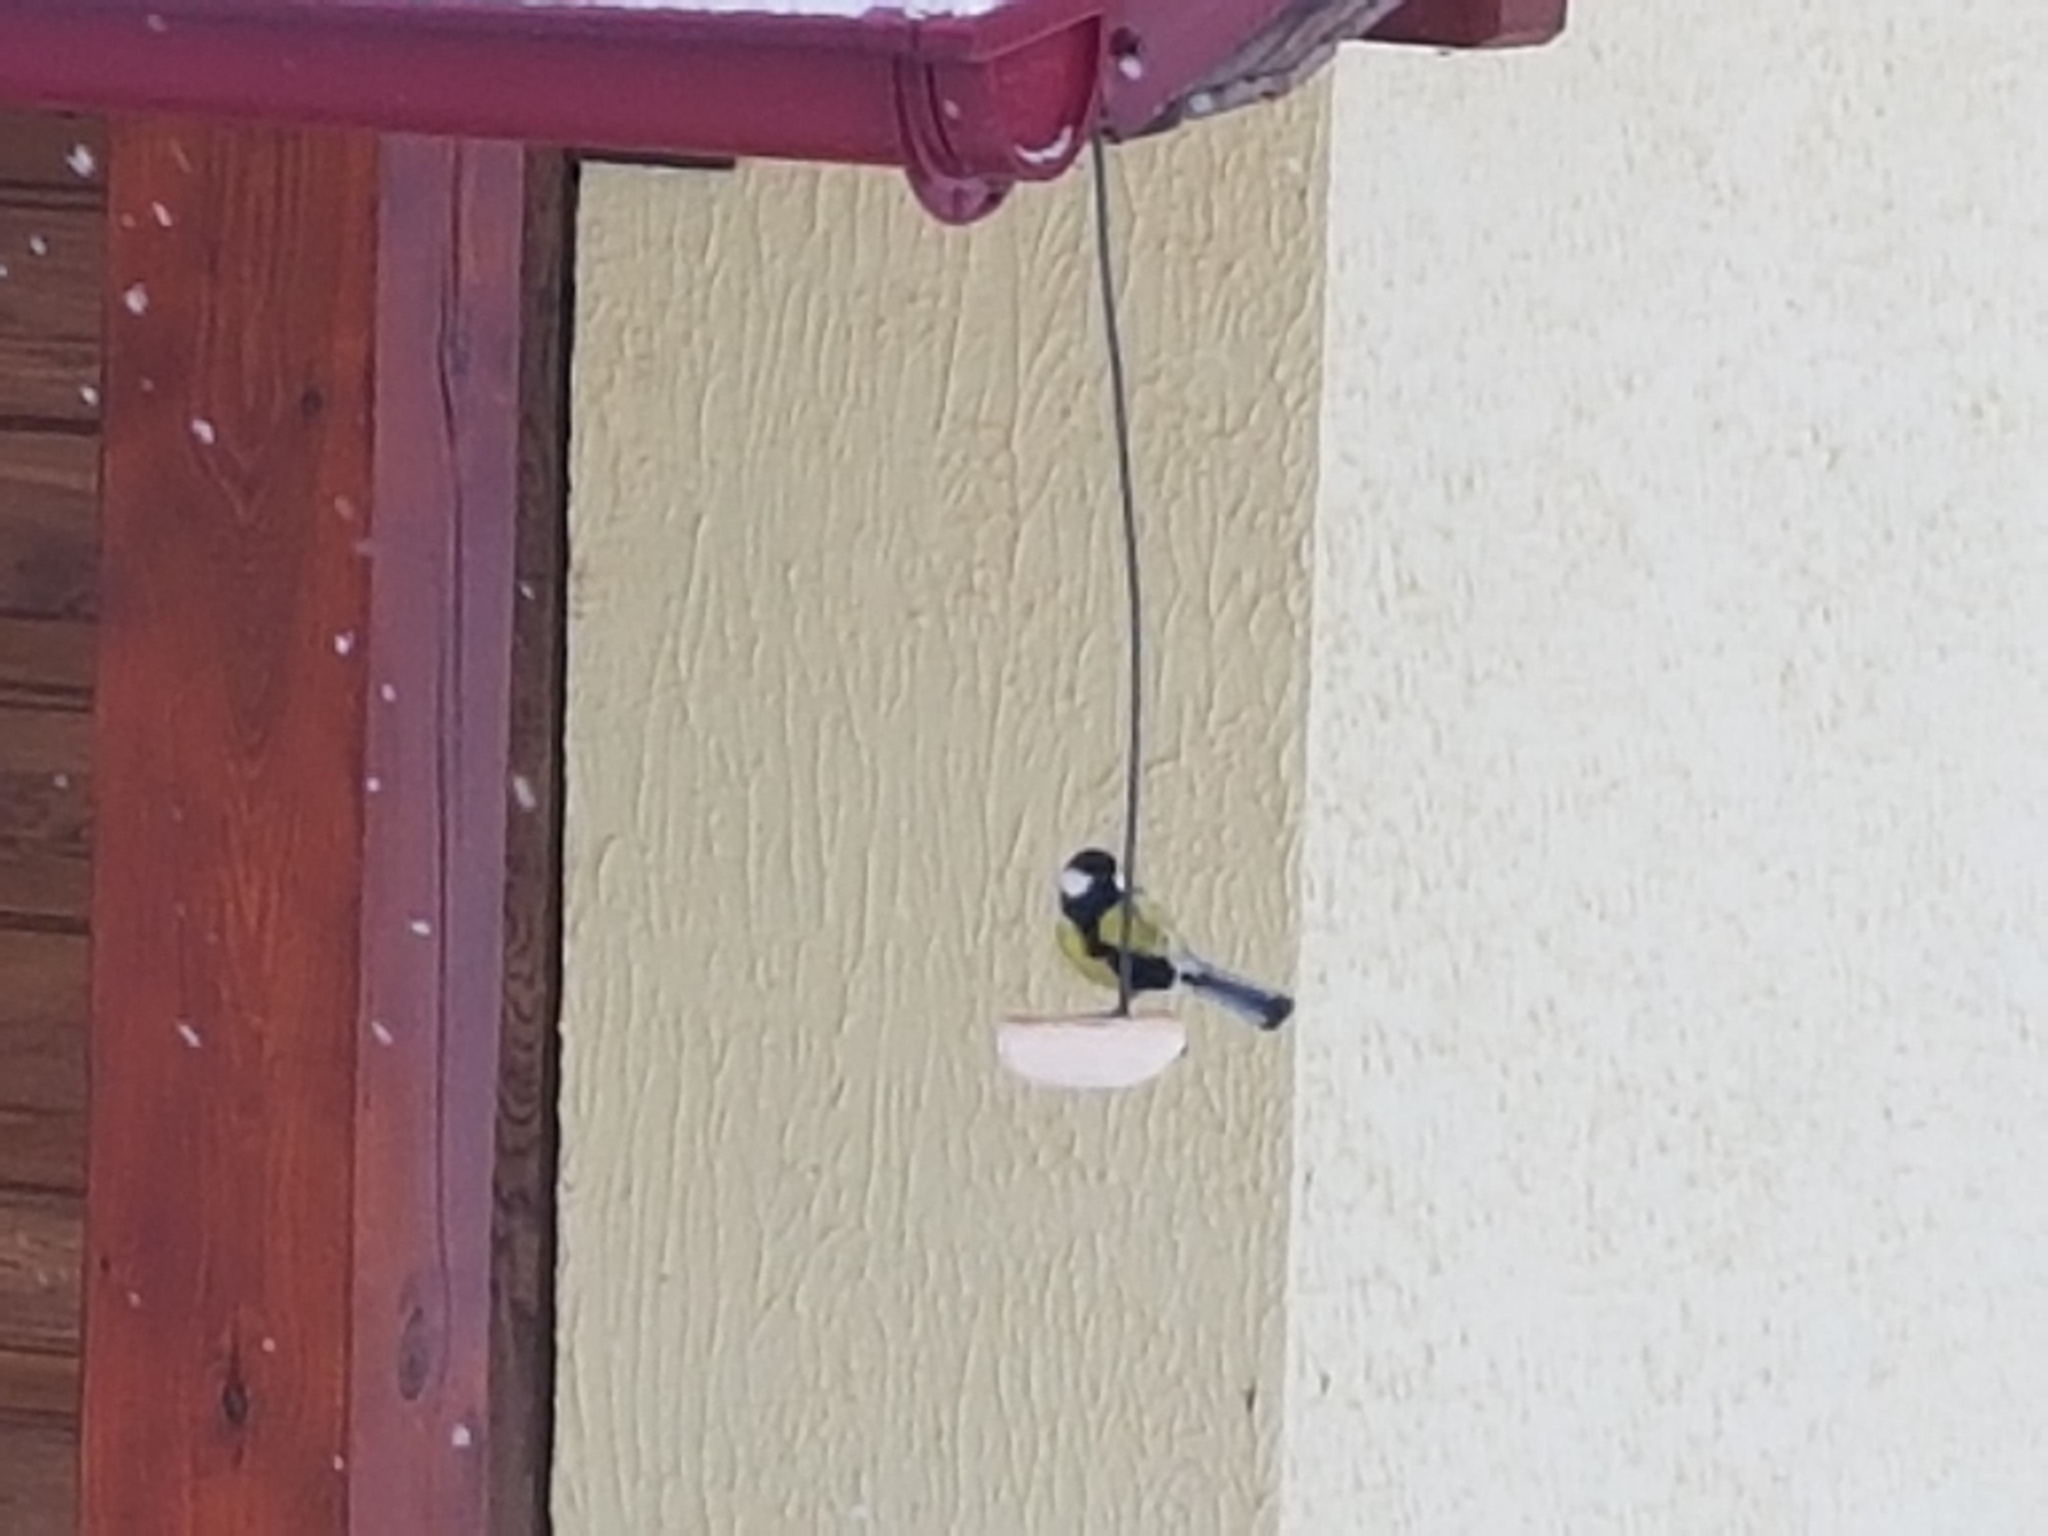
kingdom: Animalia
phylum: Chordata
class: Aves
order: Passeriformes
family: Paridae
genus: Parus
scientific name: Parus major
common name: Great tit
